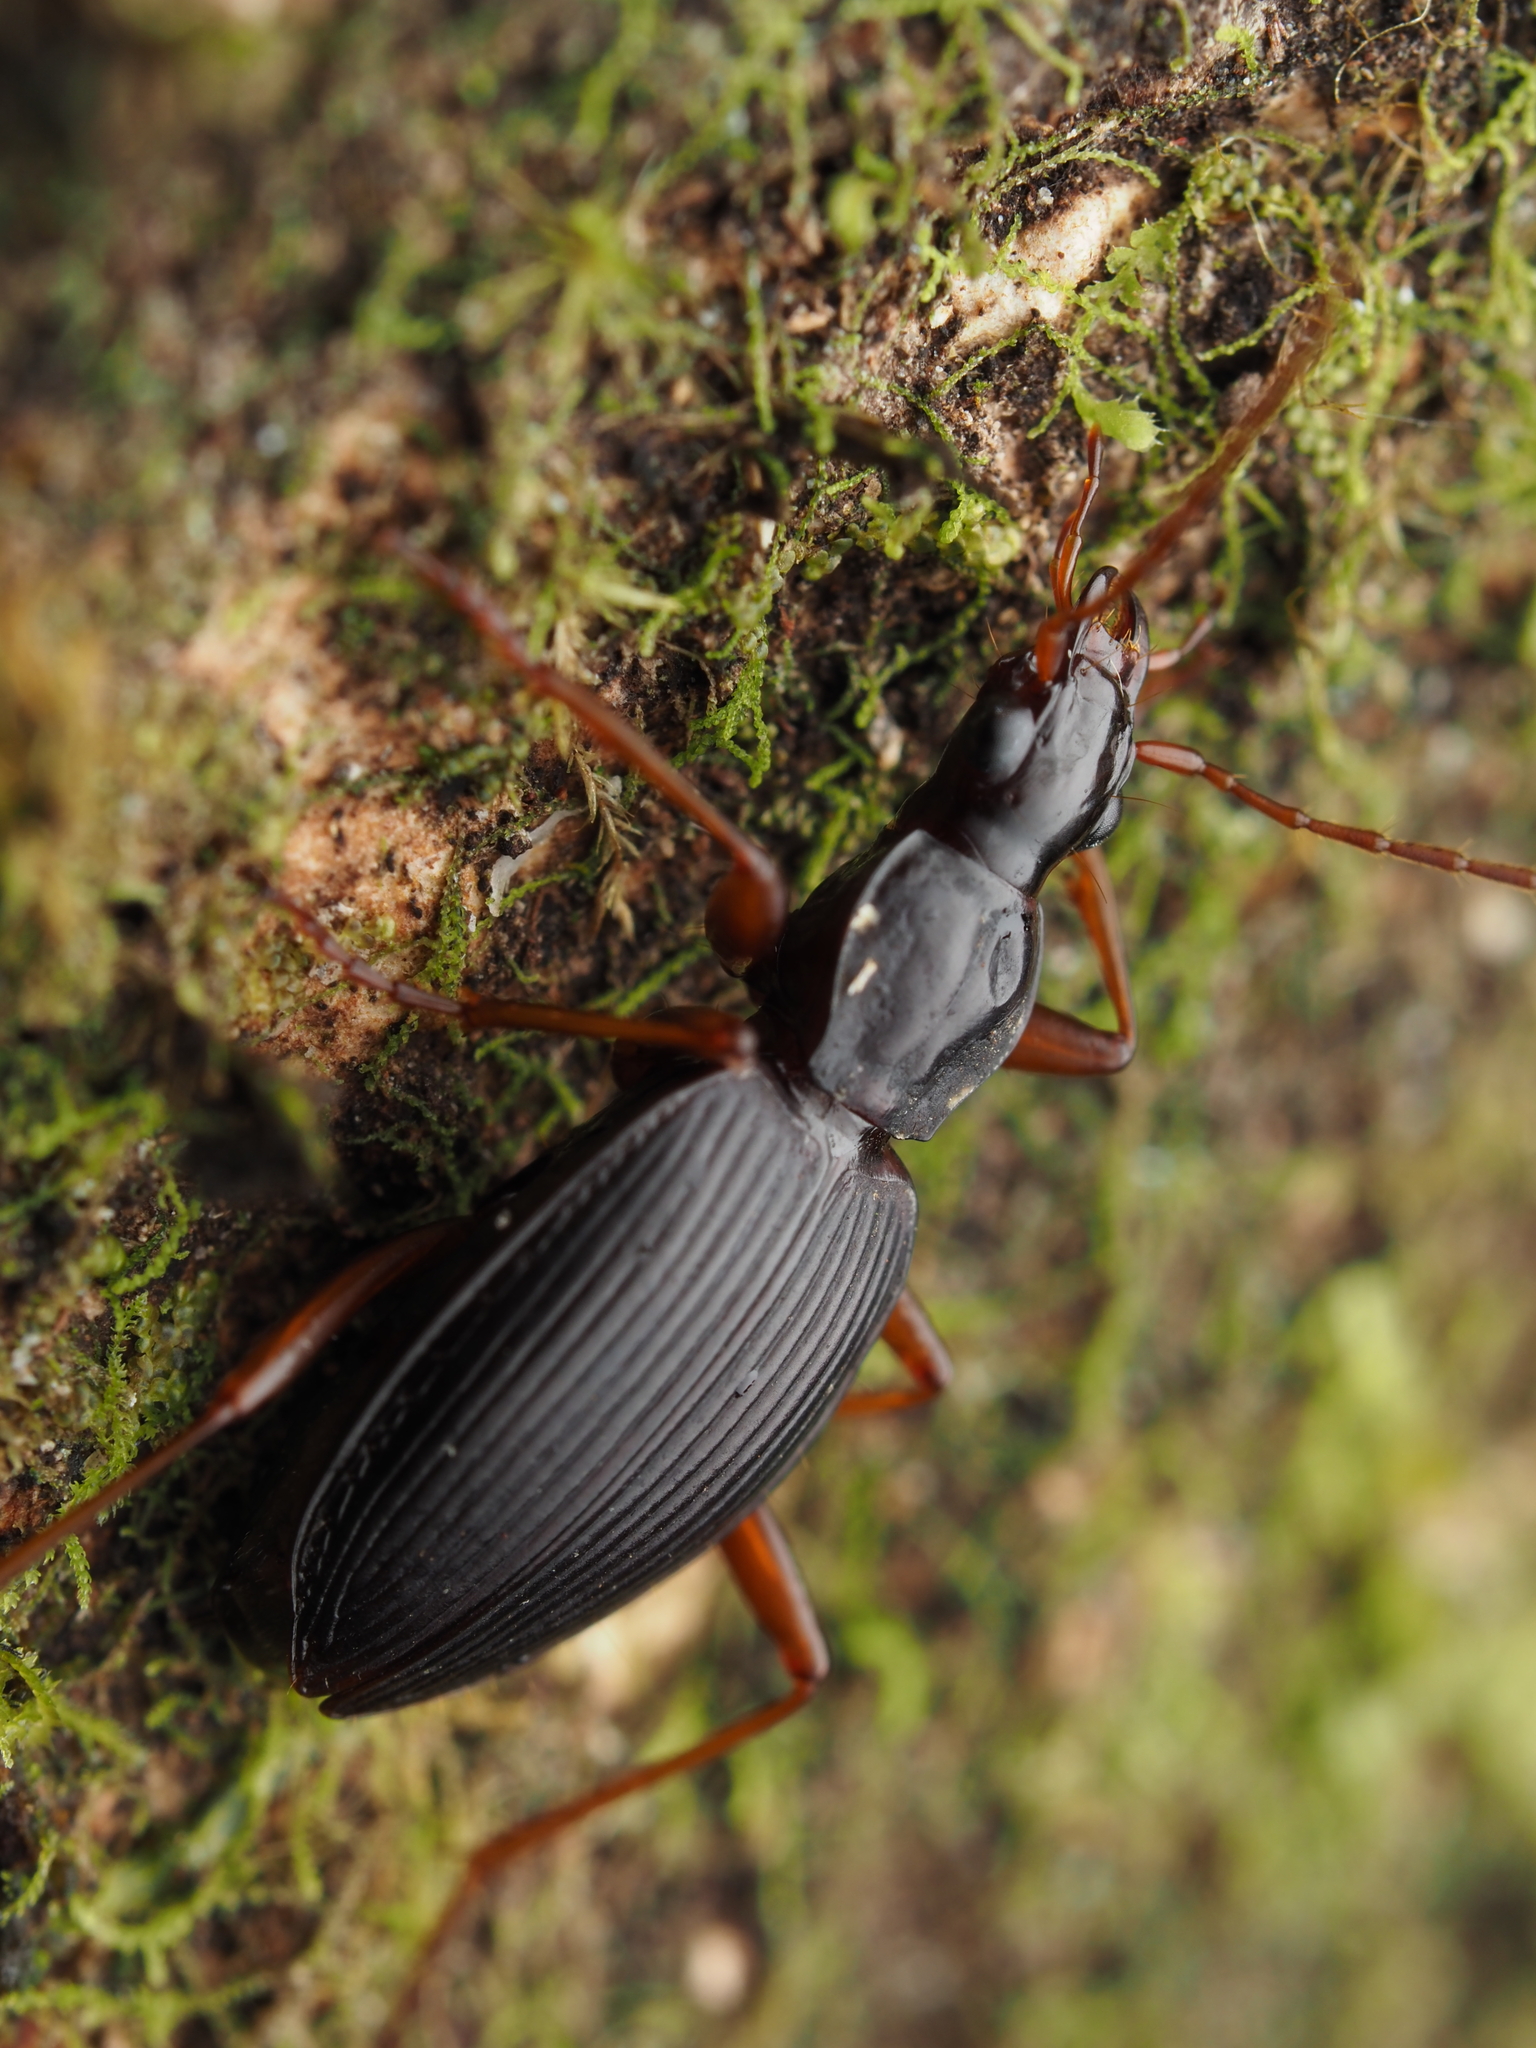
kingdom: Animalia
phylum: Arthropoda
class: Insecta
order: Coleoptera
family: Carabidae
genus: Ctenognathus
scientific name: Ctenognathus adamsi
